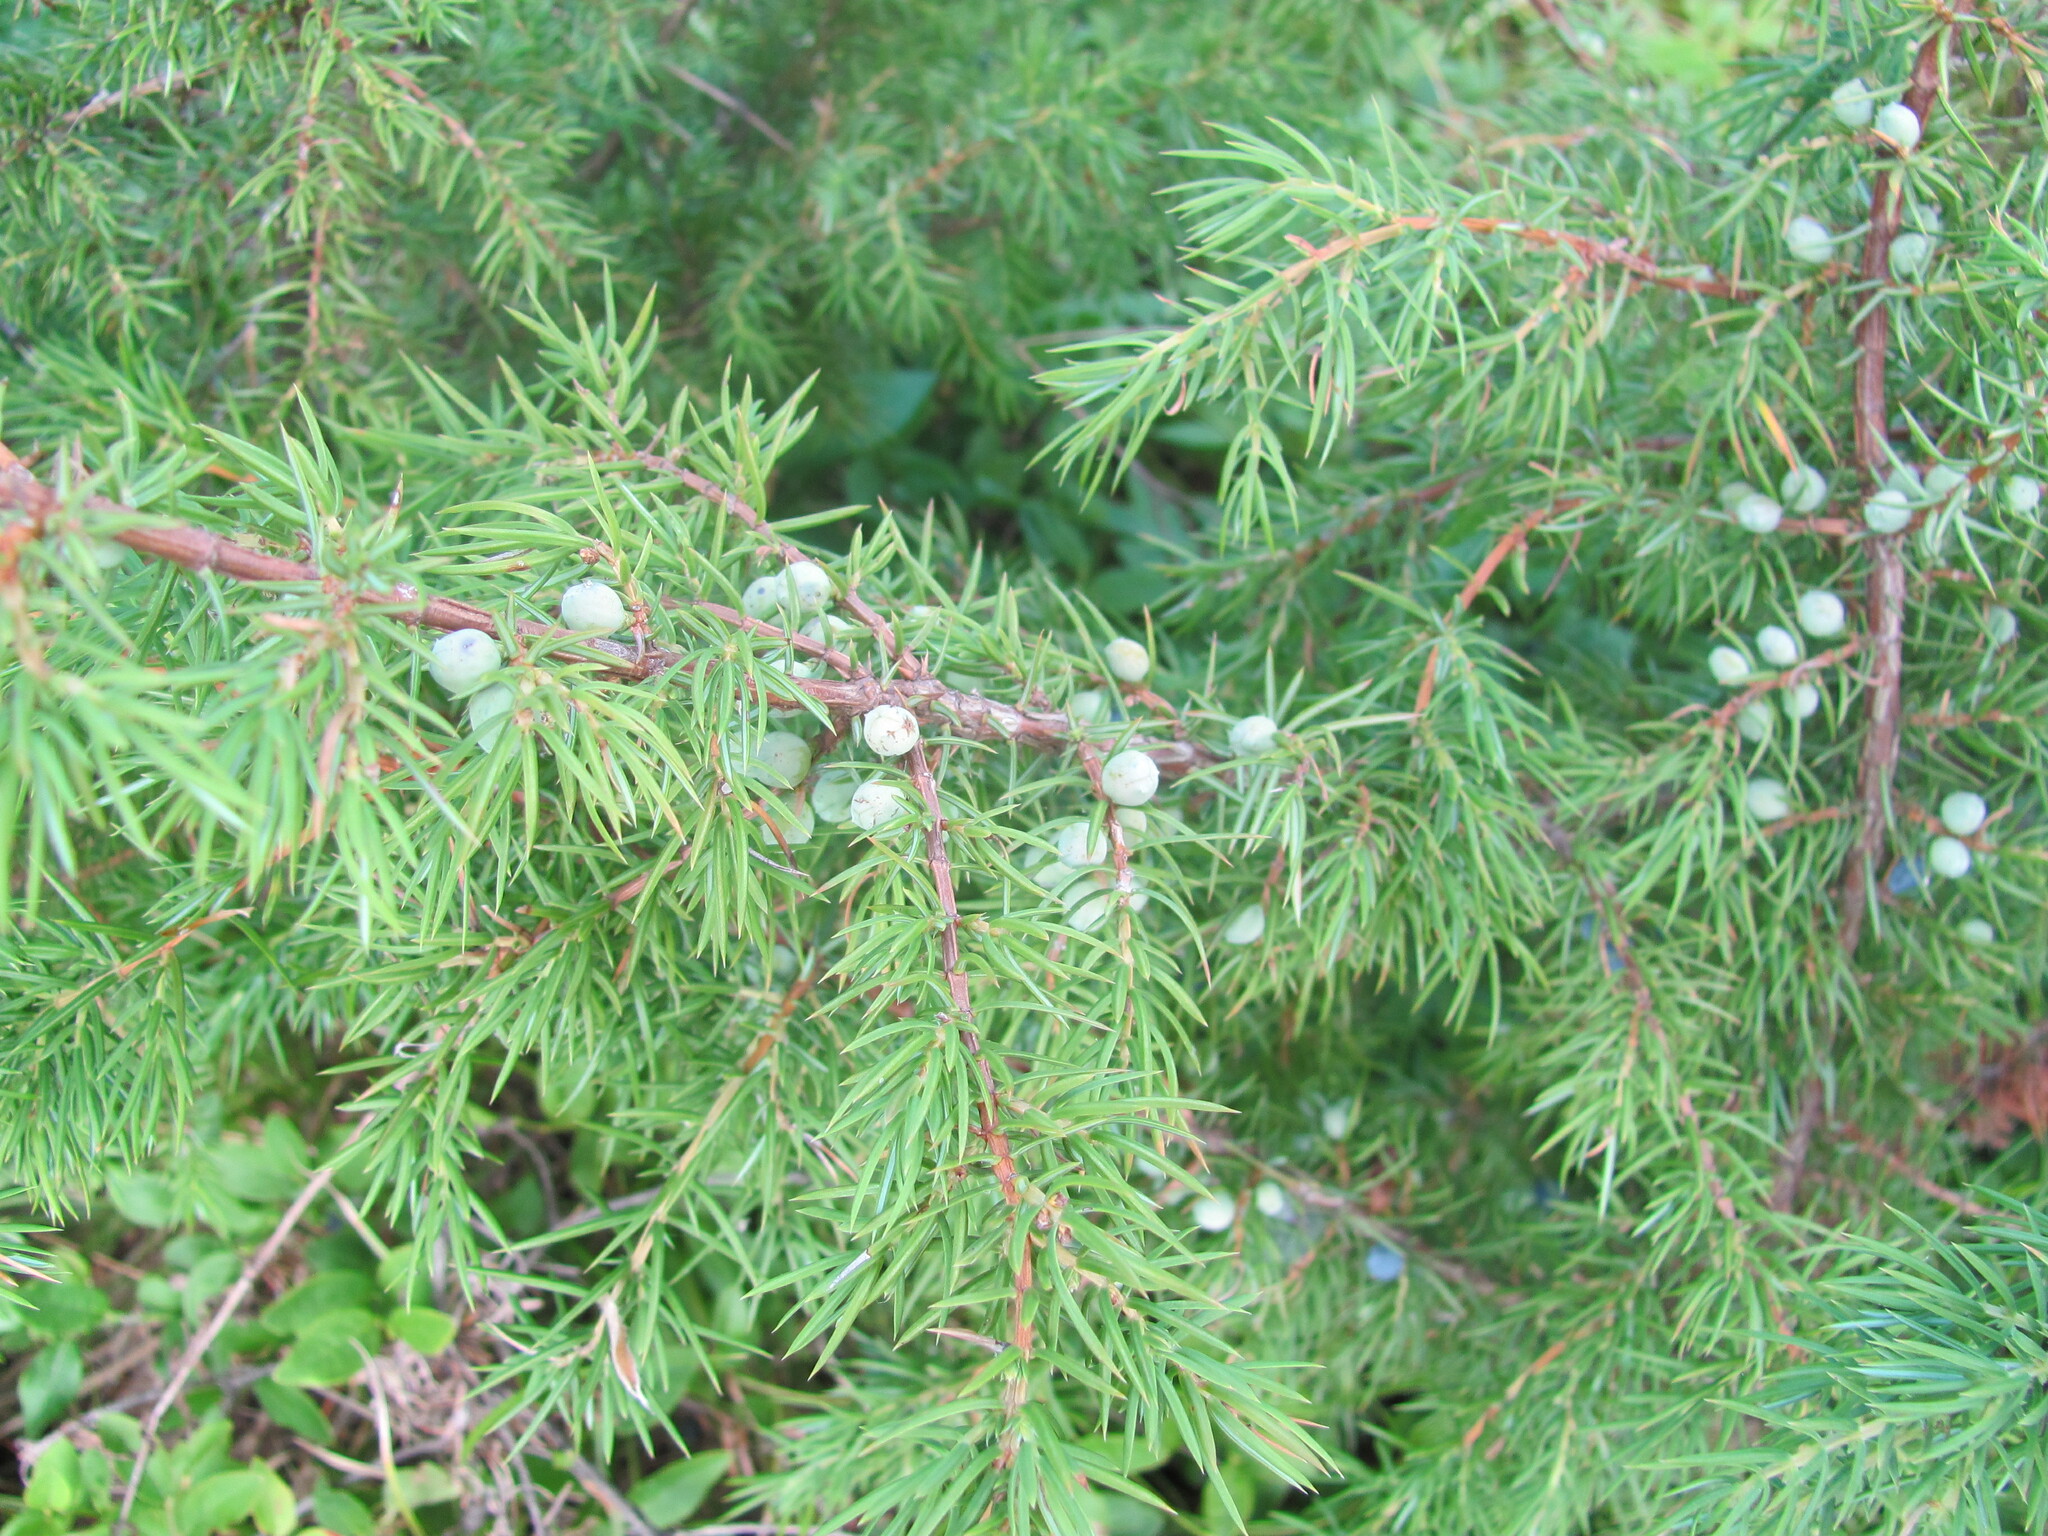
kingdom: Plantae
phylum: Tracheophyta
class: Pinopsida
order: Pinales
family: Cupressaceae
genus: Juniperus
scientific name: Juniperus communis
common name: Common juniper
